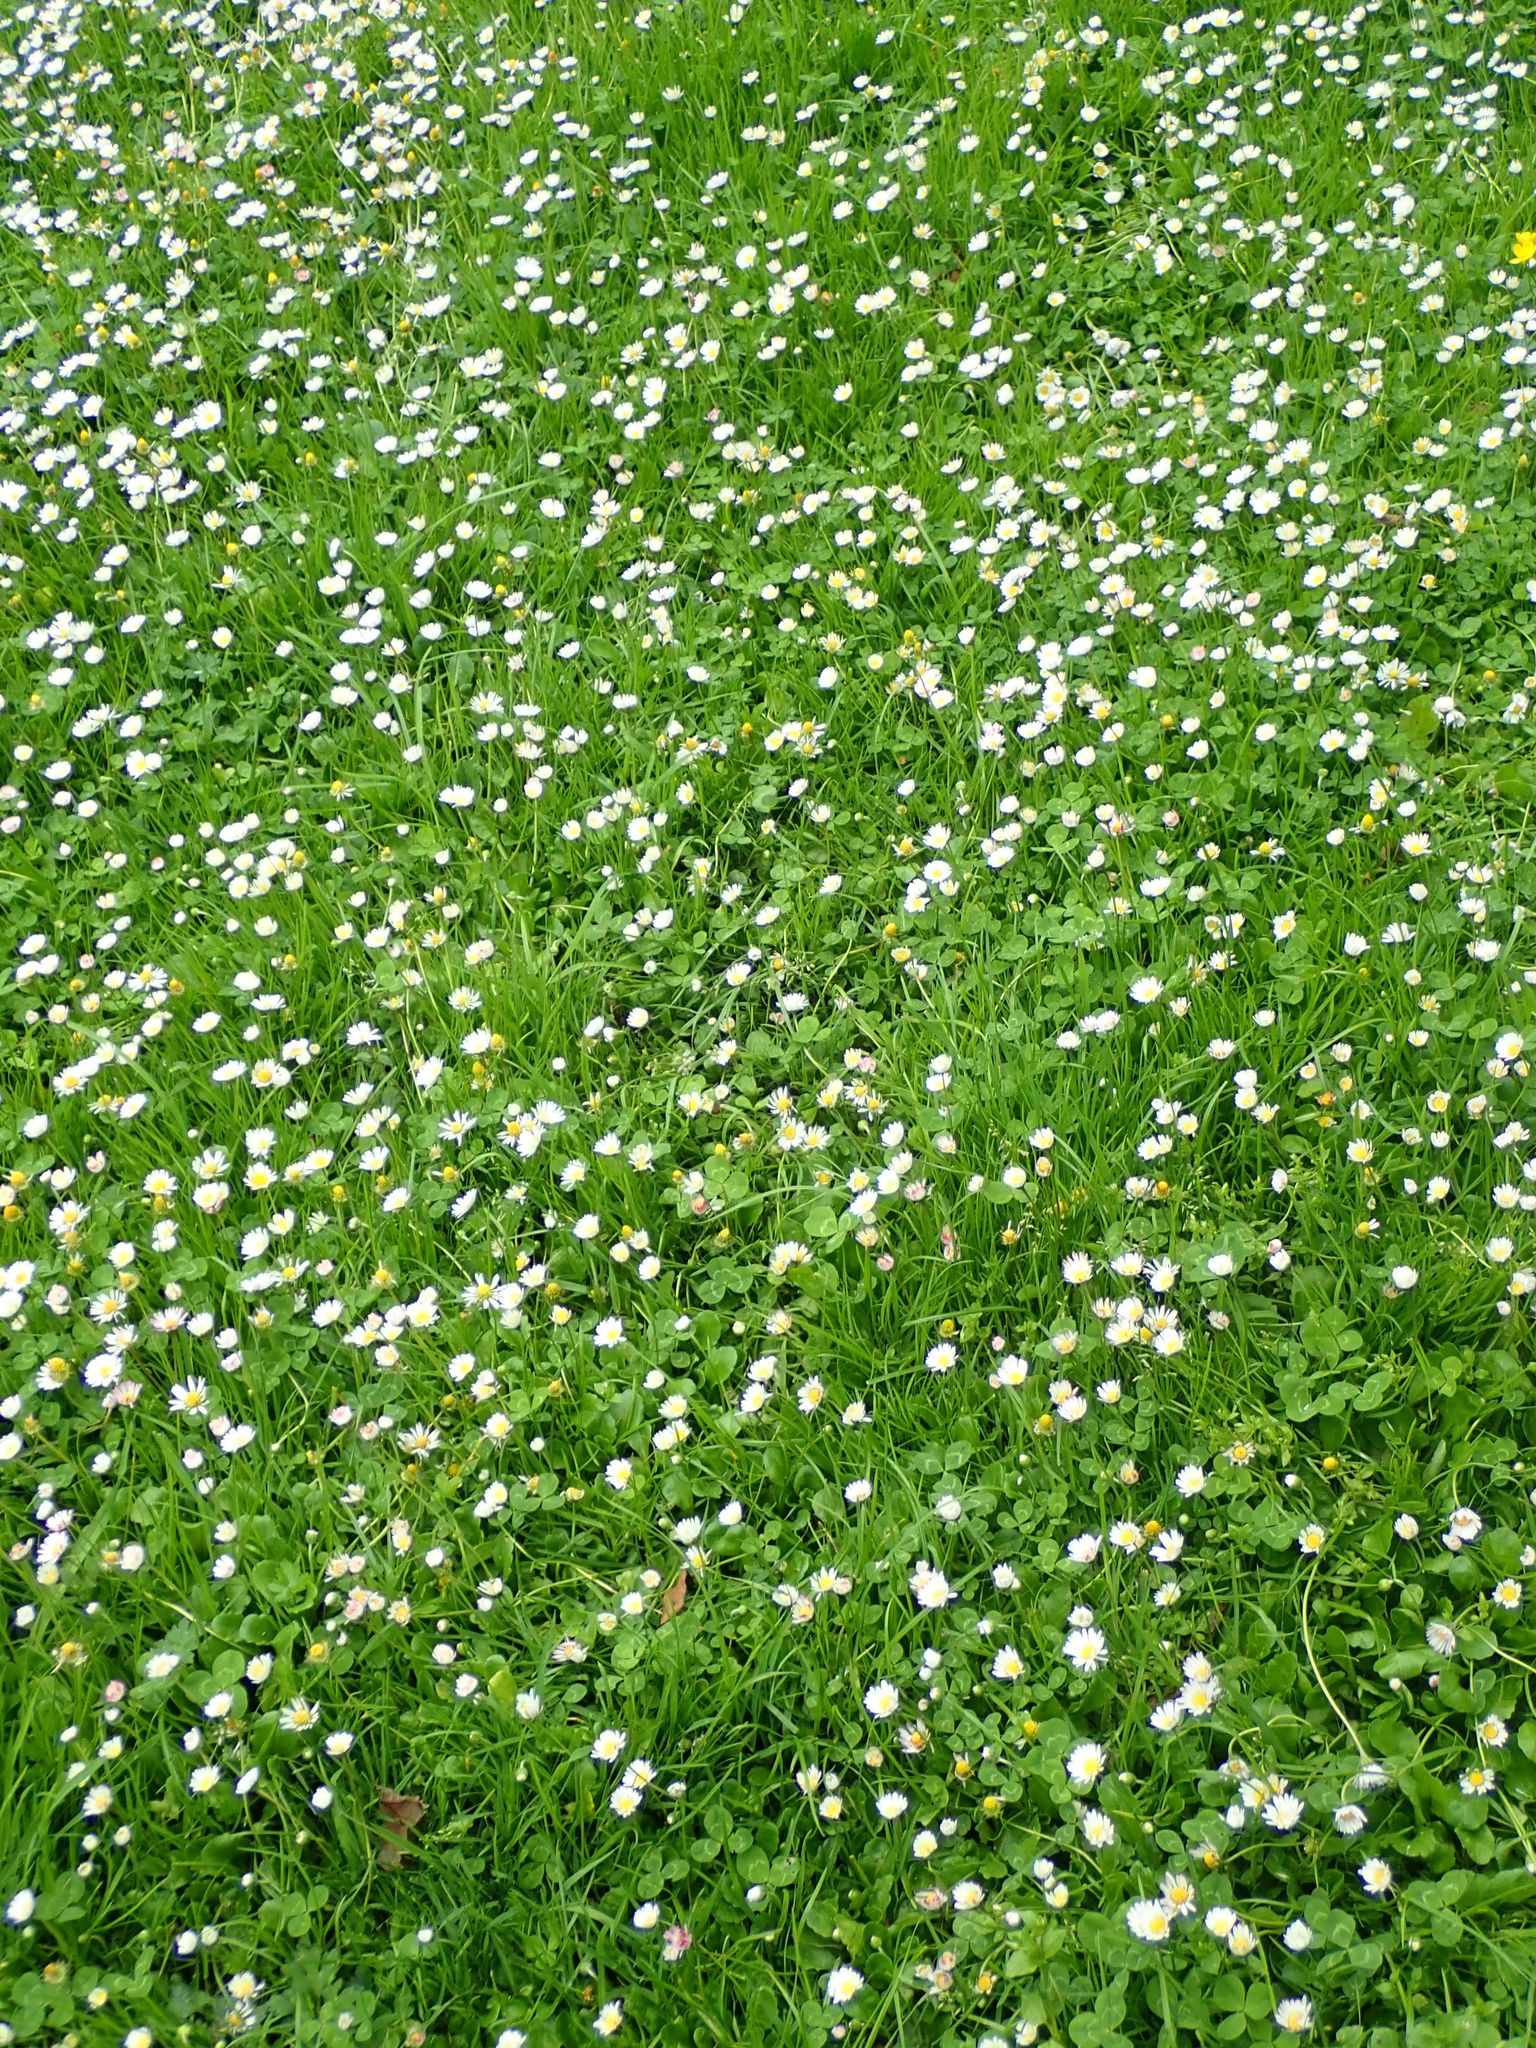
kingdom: Plantae
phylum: Tracheophyta
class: Magnoliopsida
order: Asterales
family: Asteraceae
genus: Bellis
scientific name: Bellis perennis
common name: Lawndaisy
